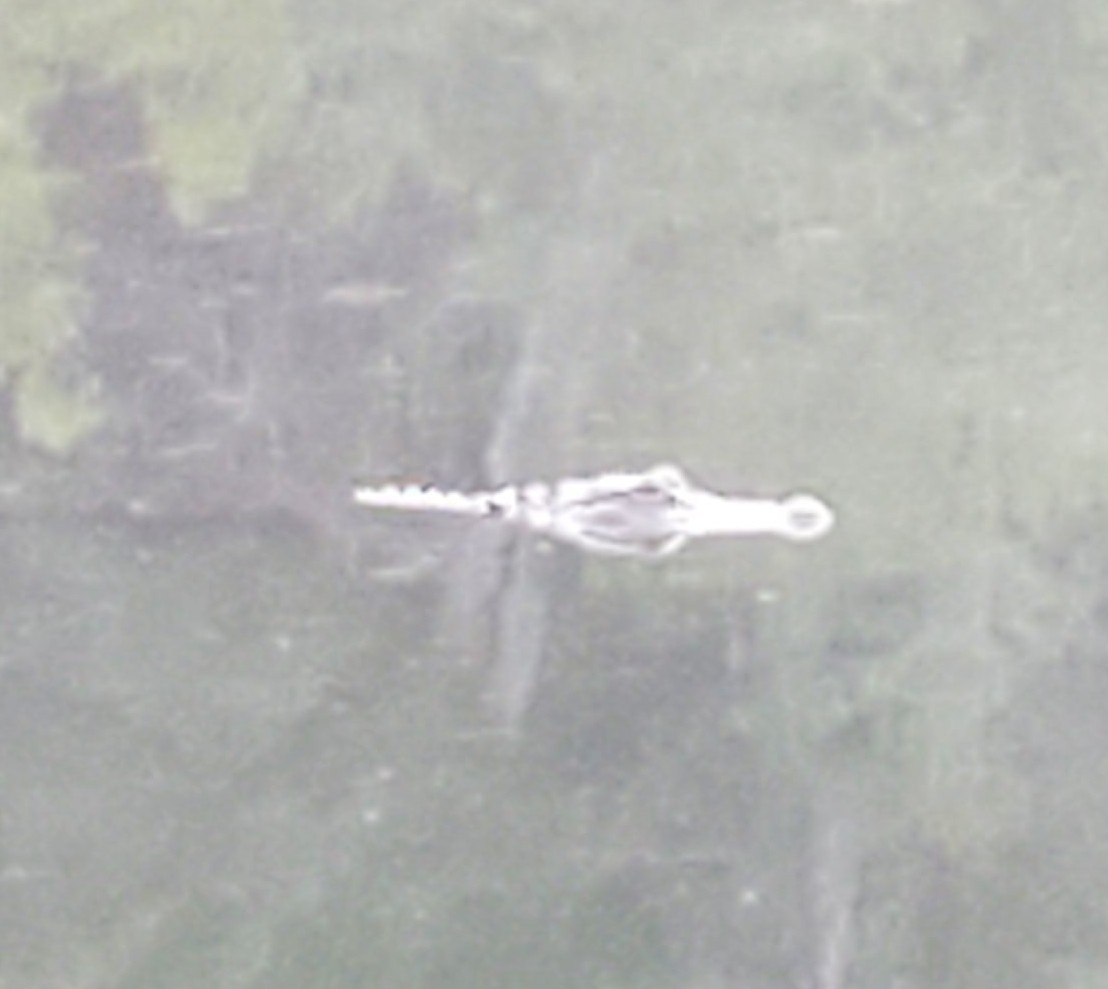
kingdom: Animalia
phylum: Chordata
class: Crocodylia
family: Alligatoridae
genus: Alligator
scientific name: Alligator mississippiensis
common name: American alligator
